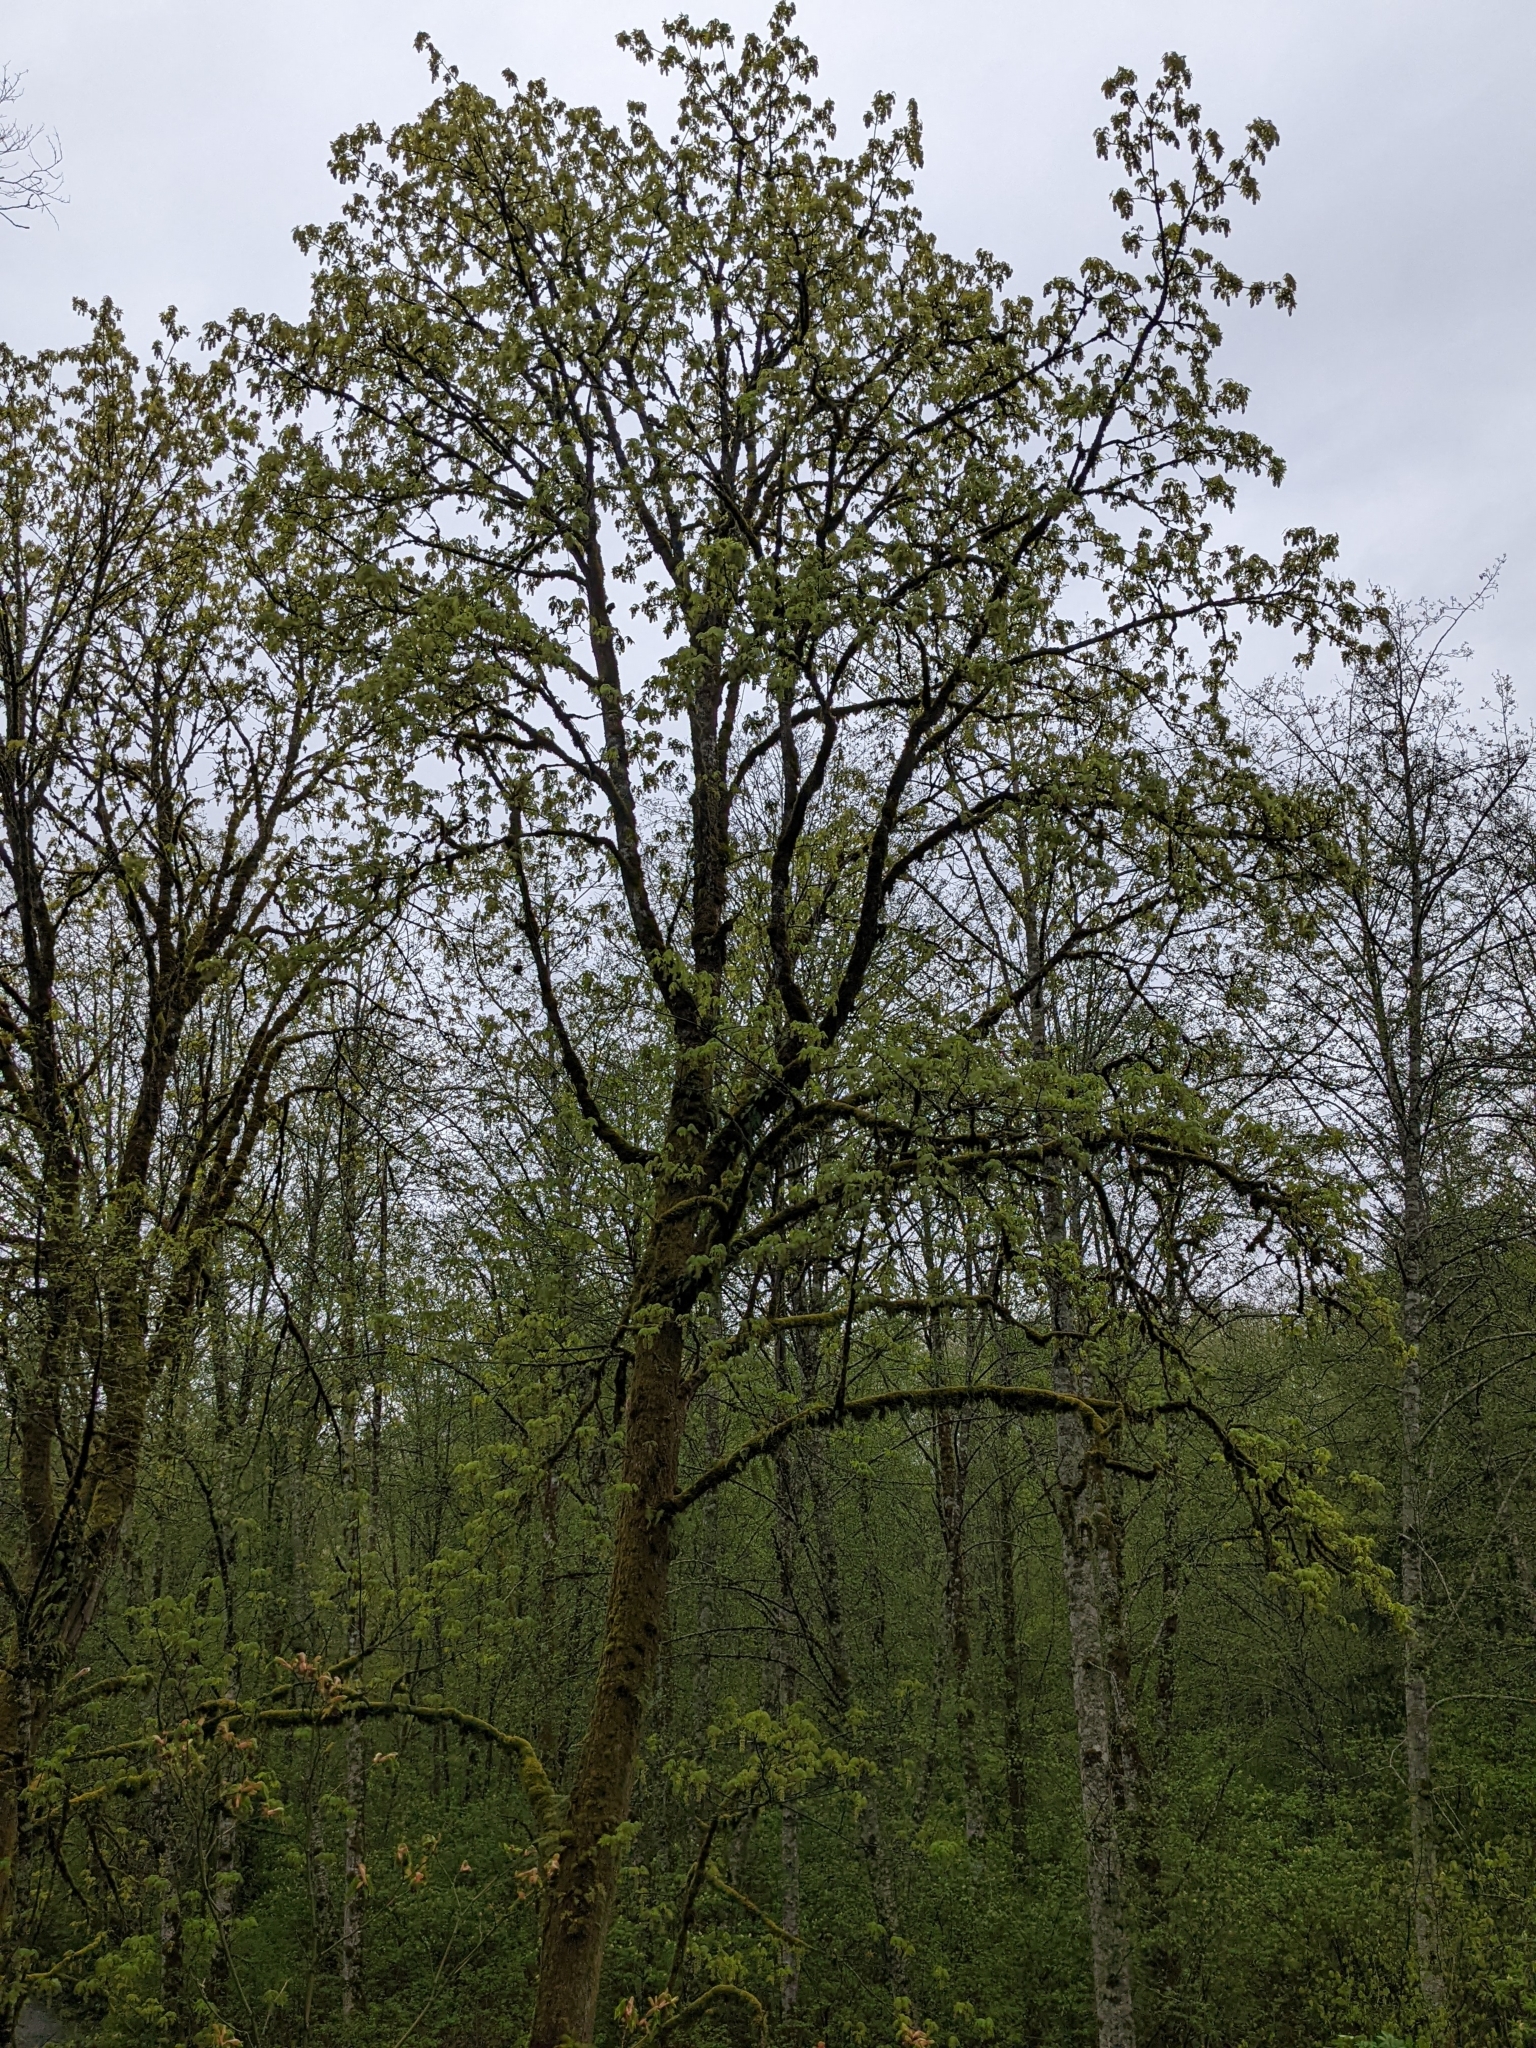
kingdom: Plantae
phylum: Tracheophyta
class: Magnoliopsida
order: Sapindales
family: Sapindaceae
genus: Acer
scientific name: Acer macrophyllum
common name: Oregon maple
